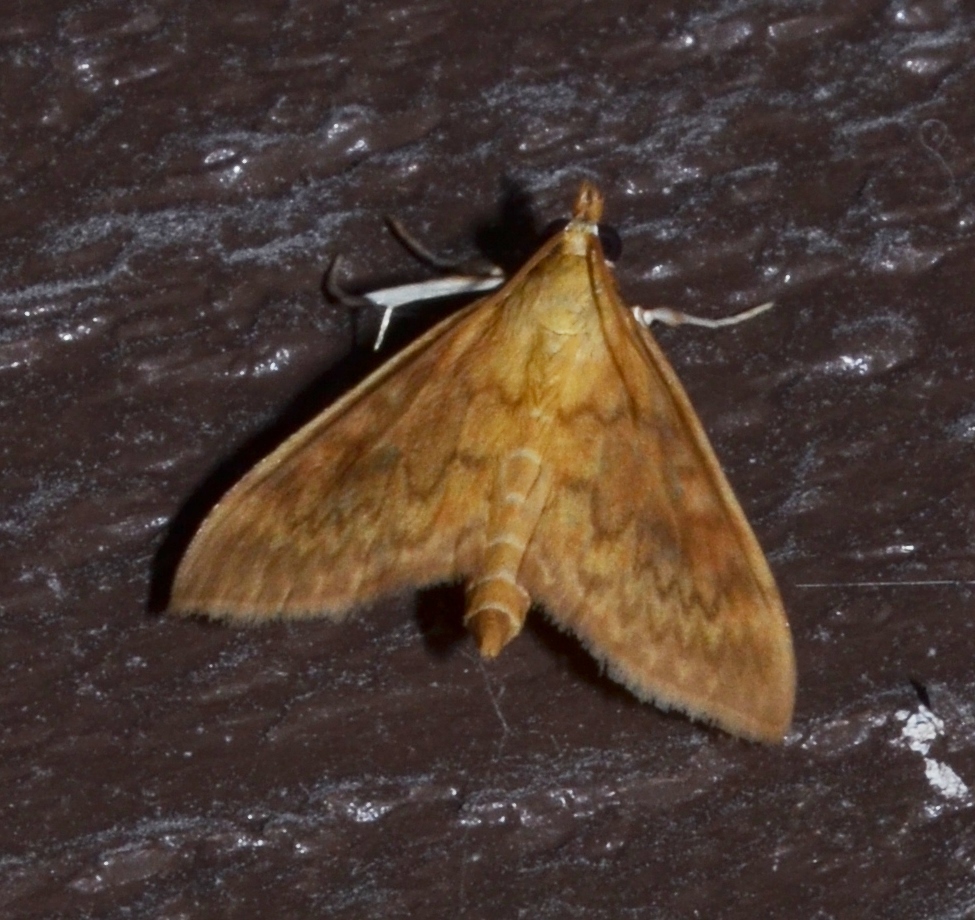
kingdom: Animalia
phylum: Arthropoda
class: Insecta
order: Lepidoptera
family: Crambidae
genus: Ostrinia
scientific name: Ostrinia penitalis
